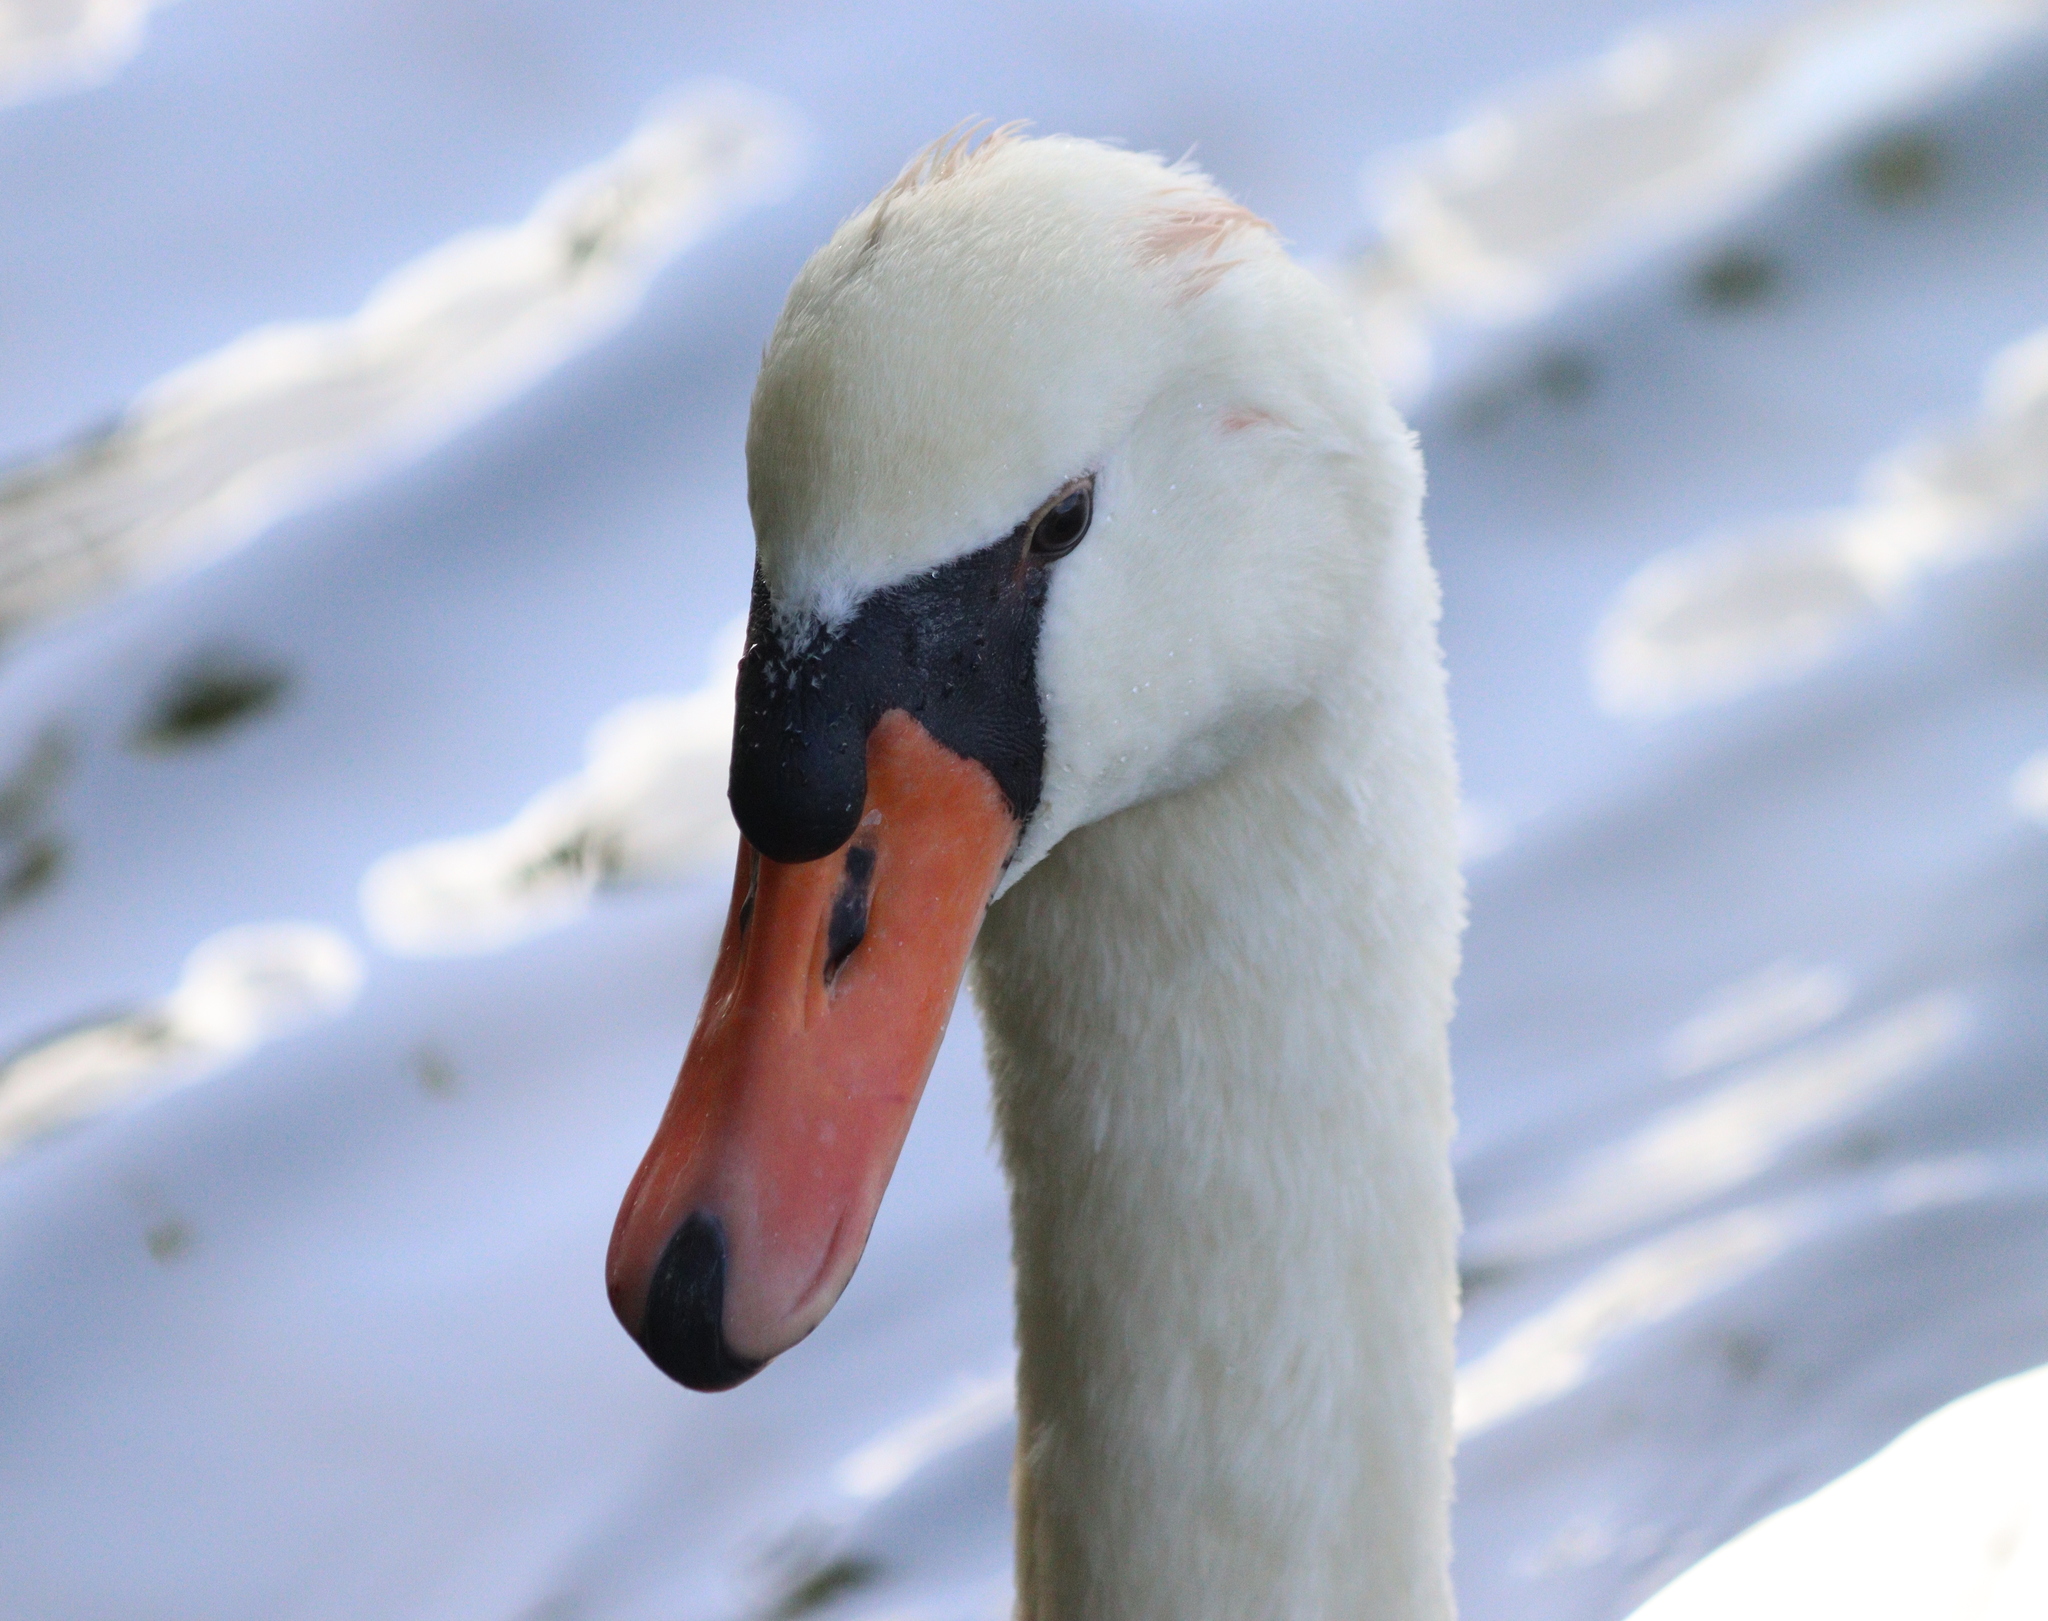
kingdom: Animalia
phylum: Chordata
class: Aves
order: Anseriformes
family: Anatidae
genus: Cygnus
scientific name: Cygnus olor
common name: Mute swan
